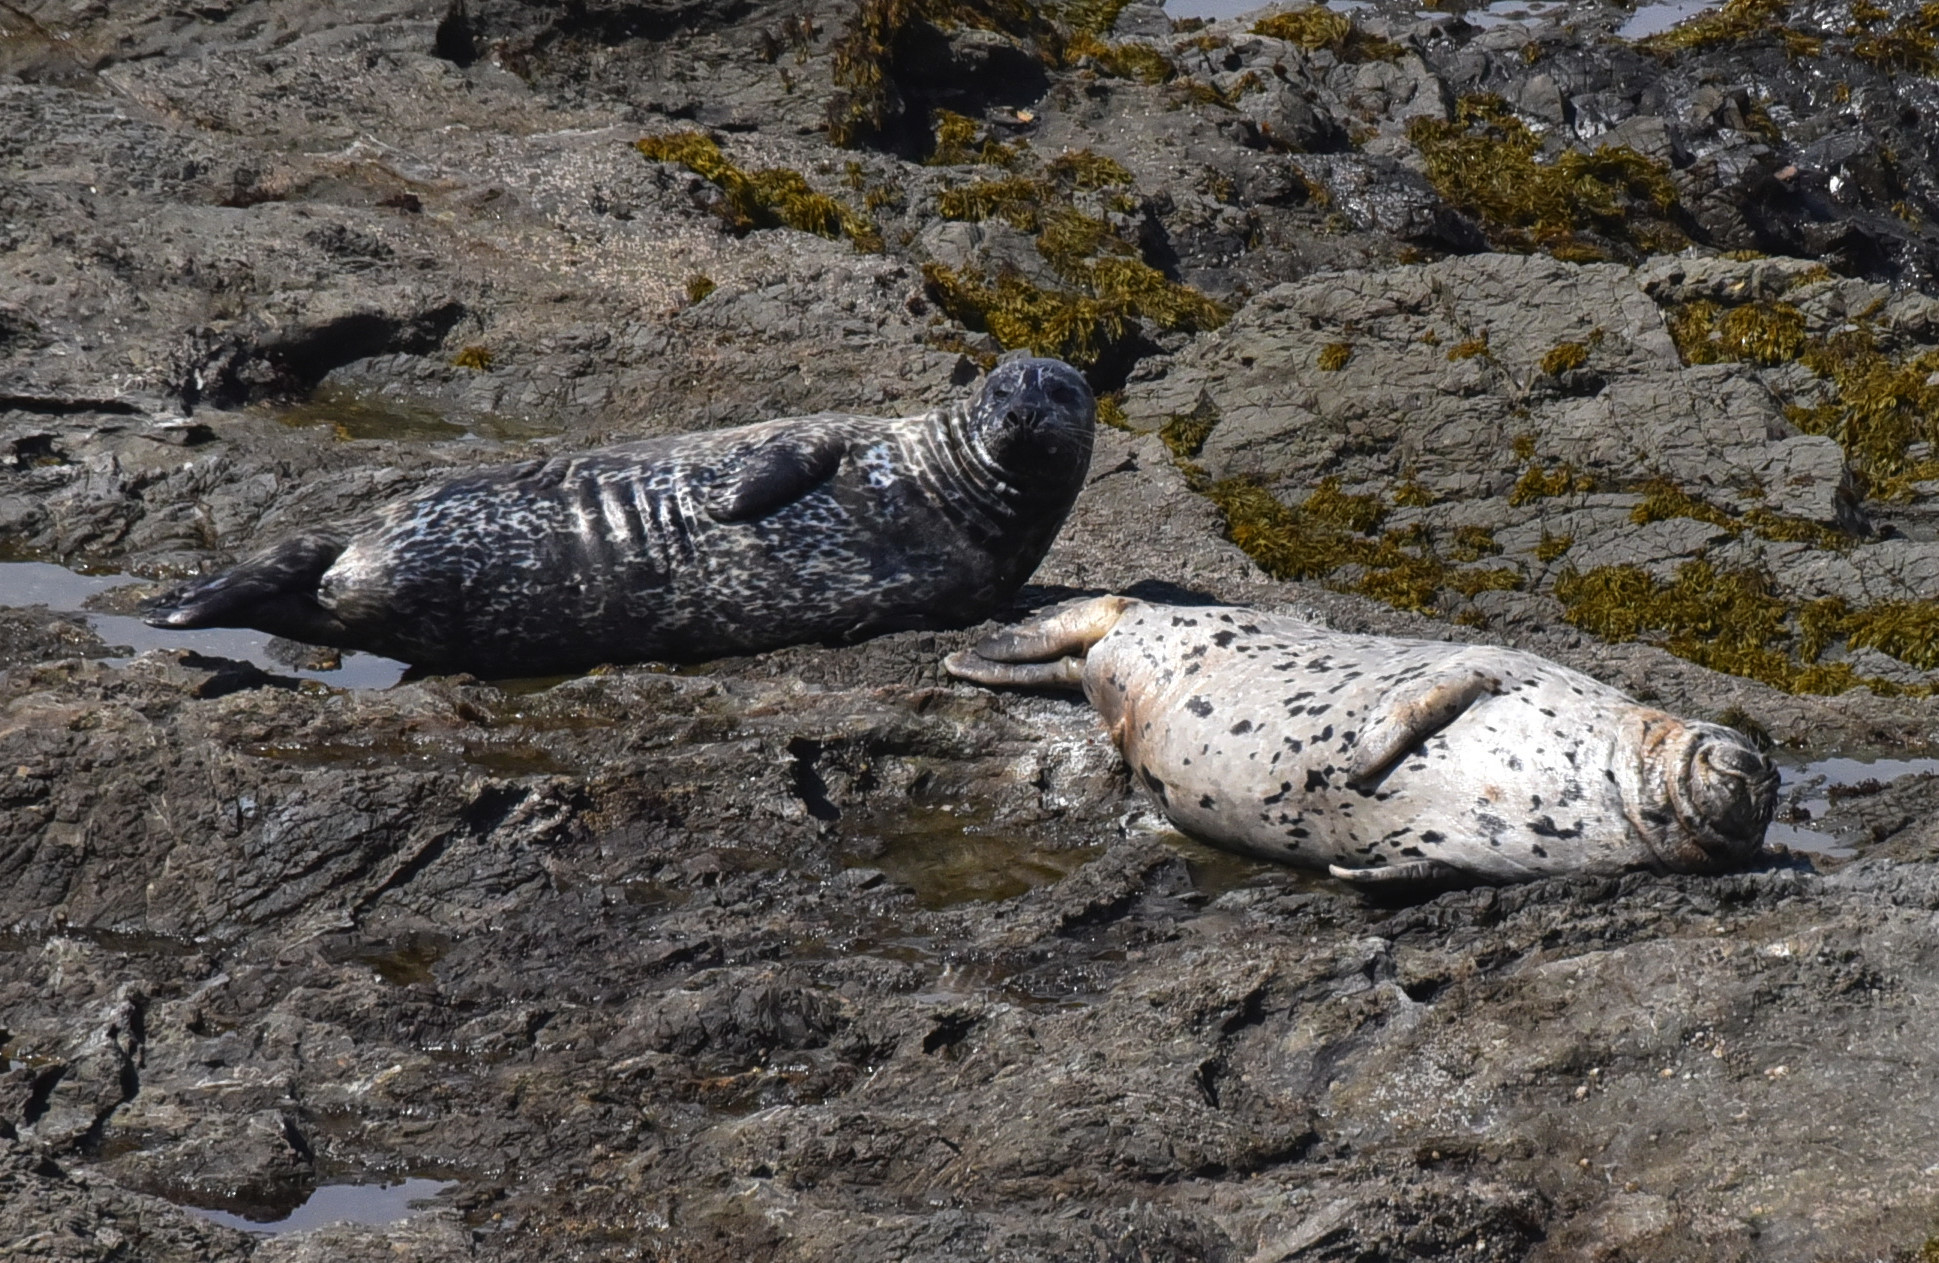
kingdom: Animalia
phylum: Chordata
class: Mammalia
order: Carnivora
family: Phocidae
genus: Phoca
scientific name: Phoca vitulina
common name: Harbor seal
